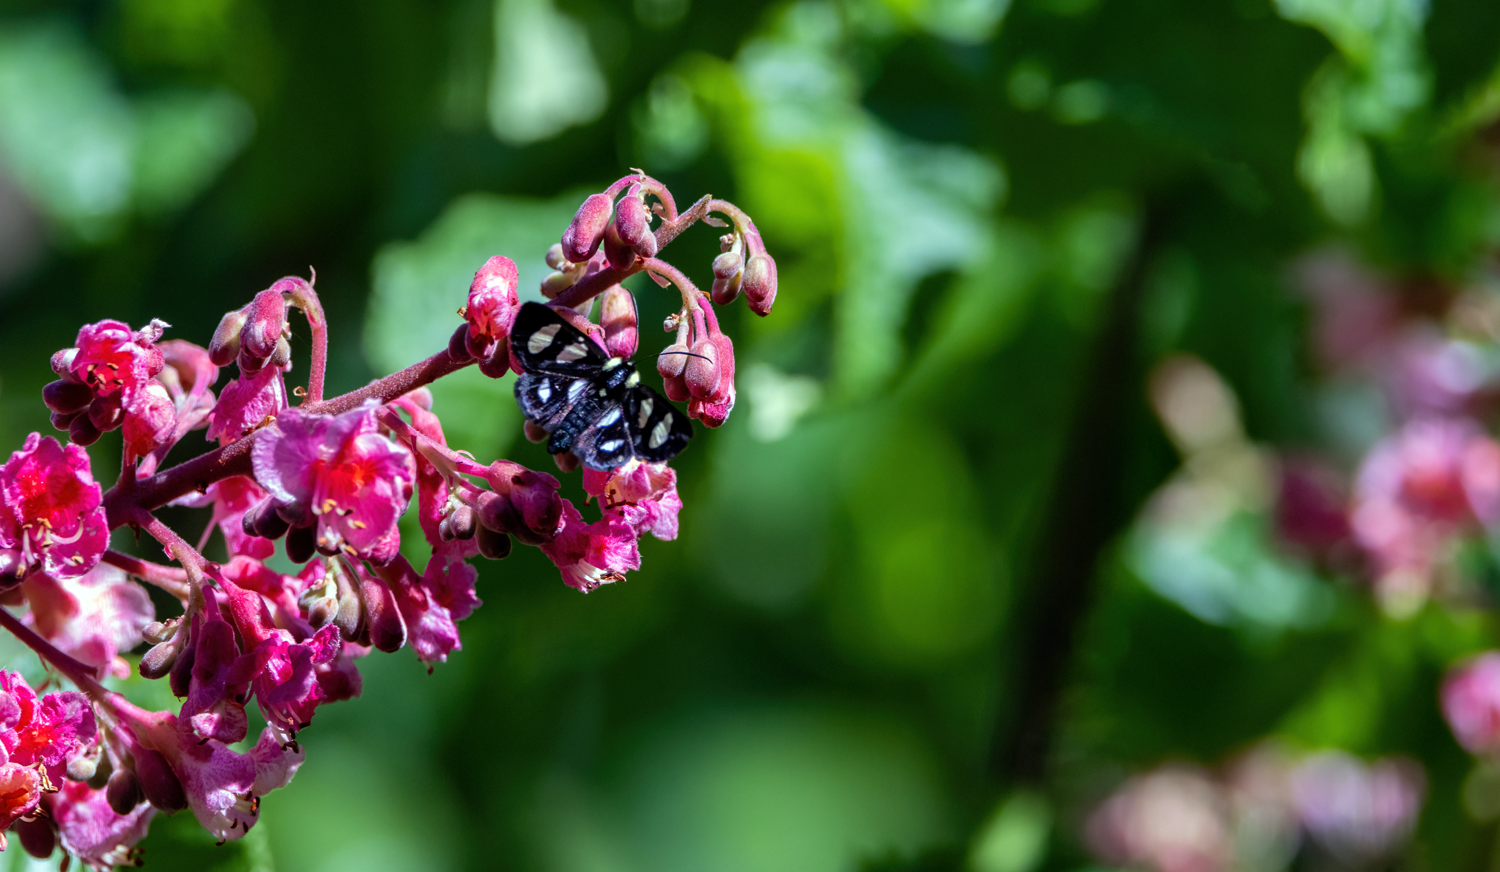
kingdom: Animalia
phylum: Arthropoda
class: Insecta
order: Lepidoptera
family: Noctuidae
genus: Alypia
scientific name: Alypia octomaculata
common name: Eight-spotted forester
